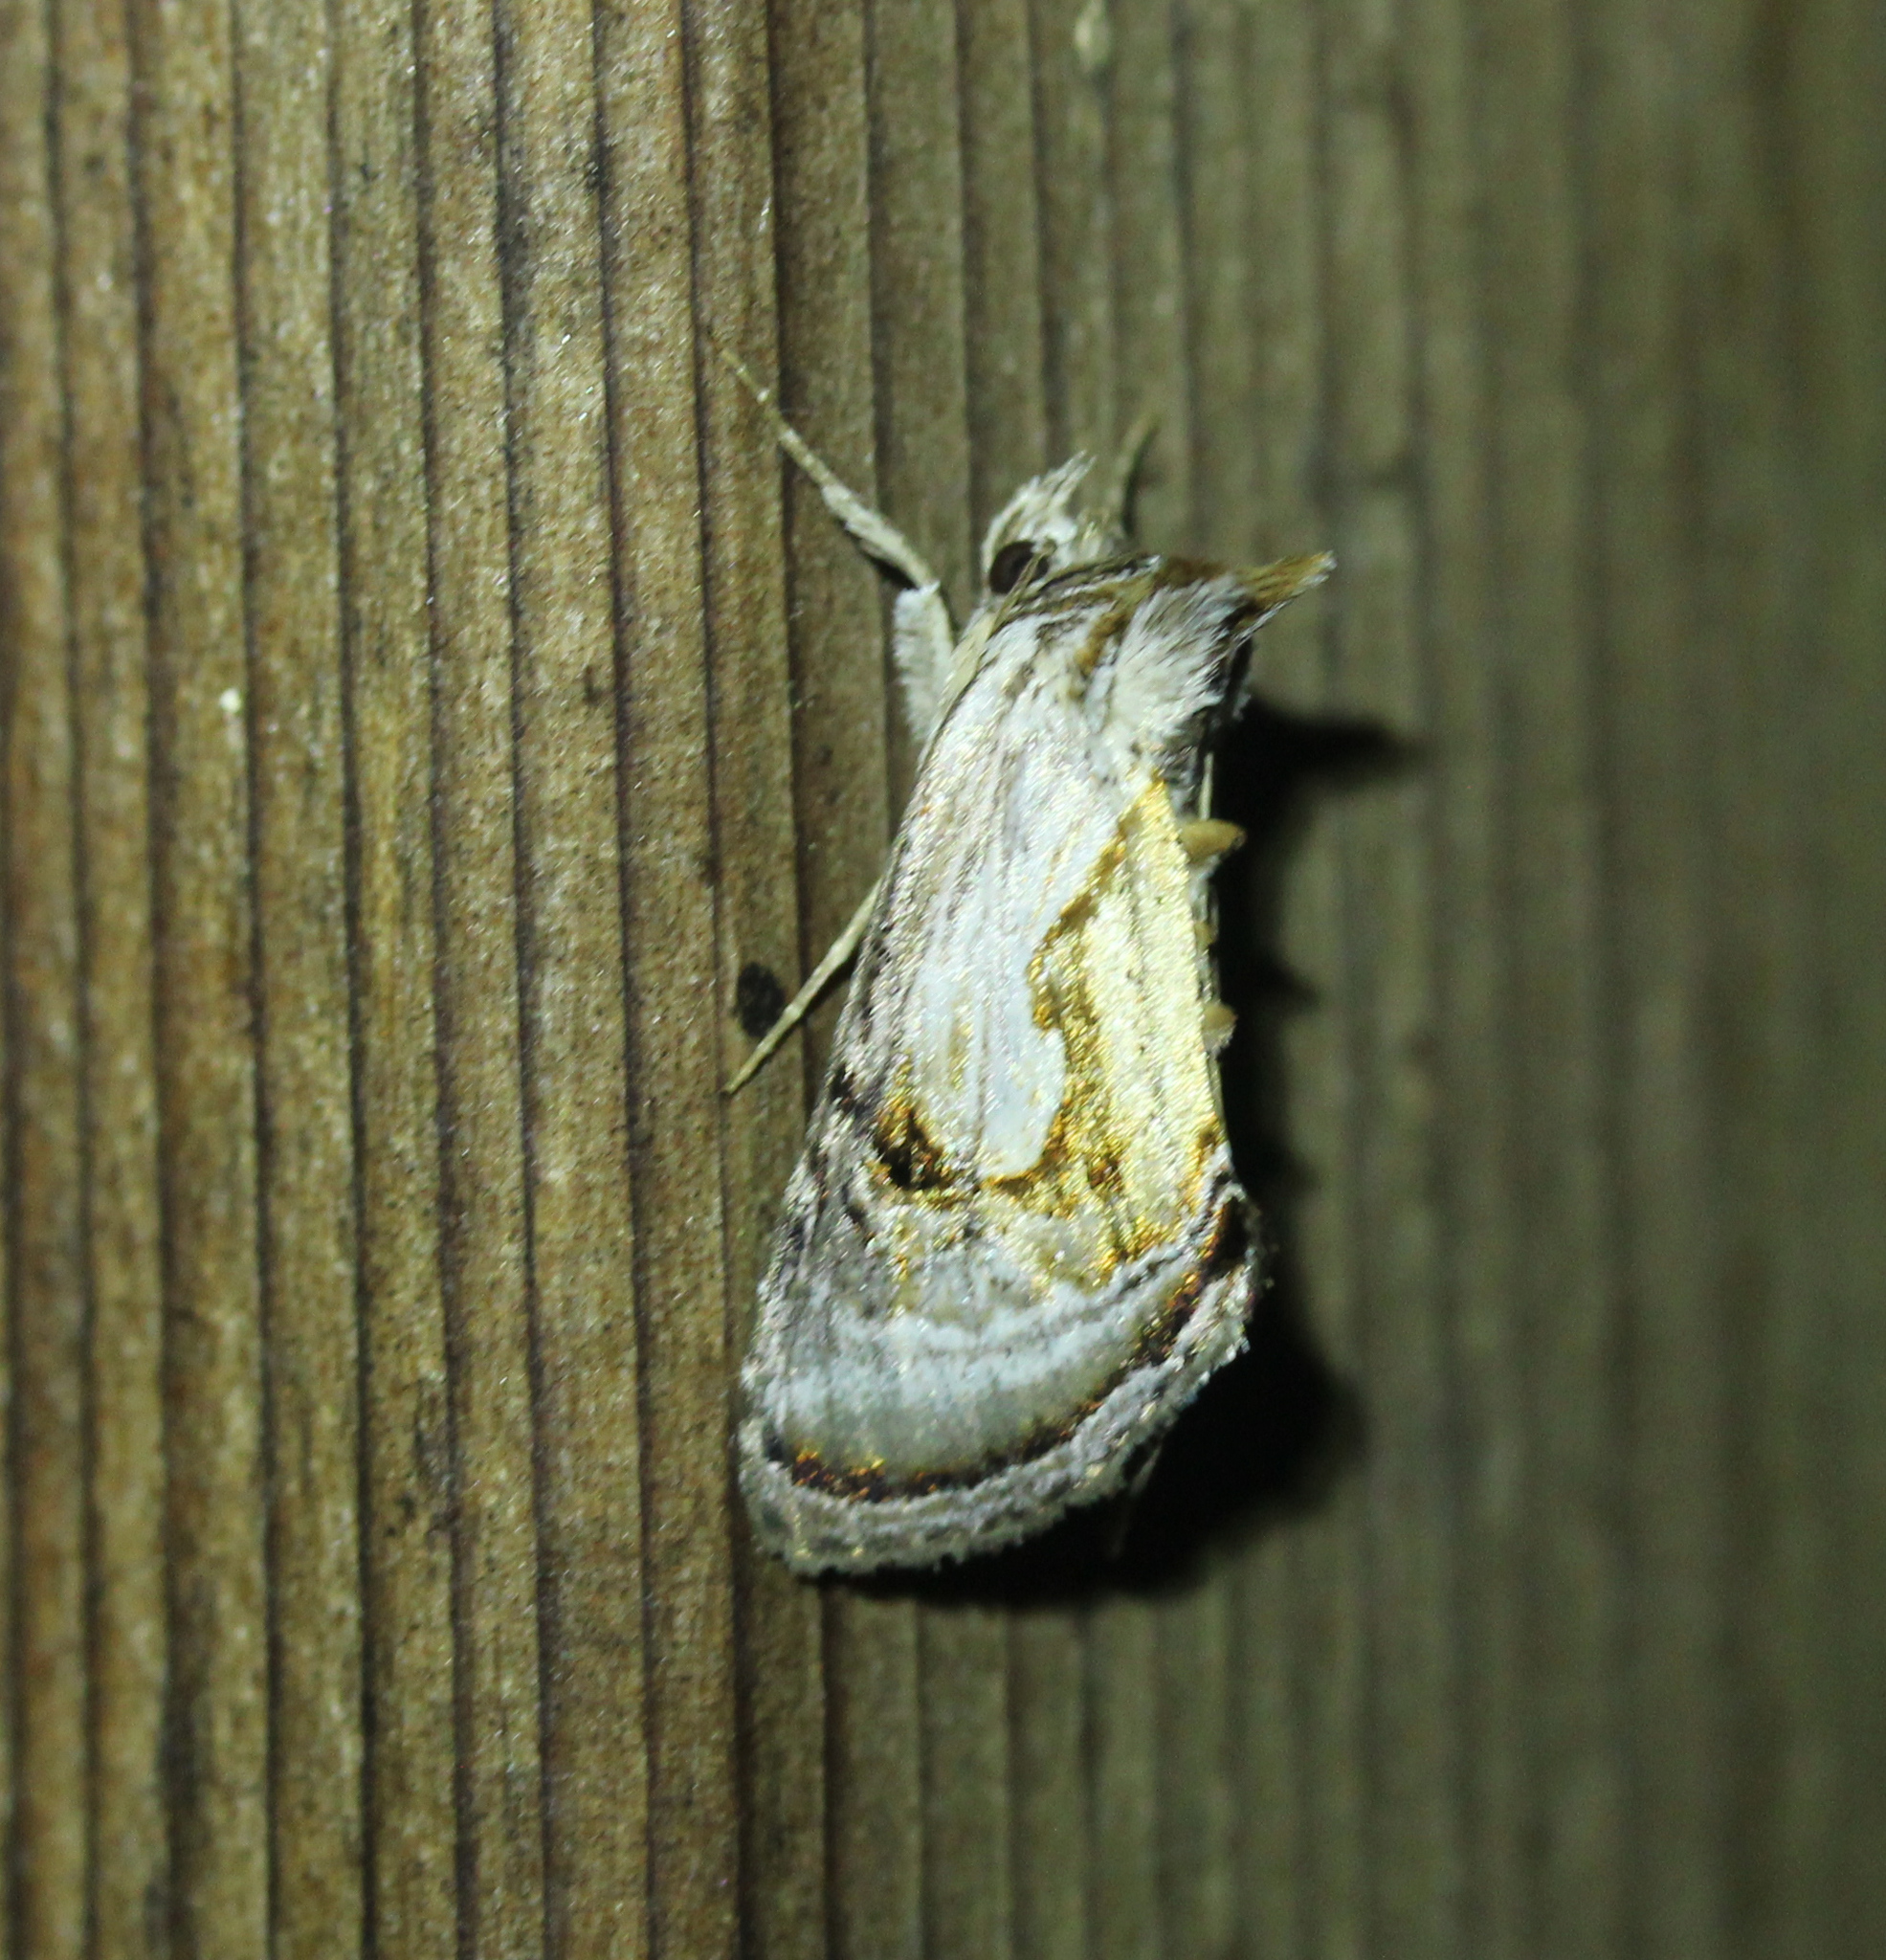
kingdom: Animalia
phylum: Arthropoda
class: Insecta
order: Lepidoptera
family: Noctuidae
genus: Chrysanympha
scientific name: Chrysanympha formosa
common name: Formosa looper moth
